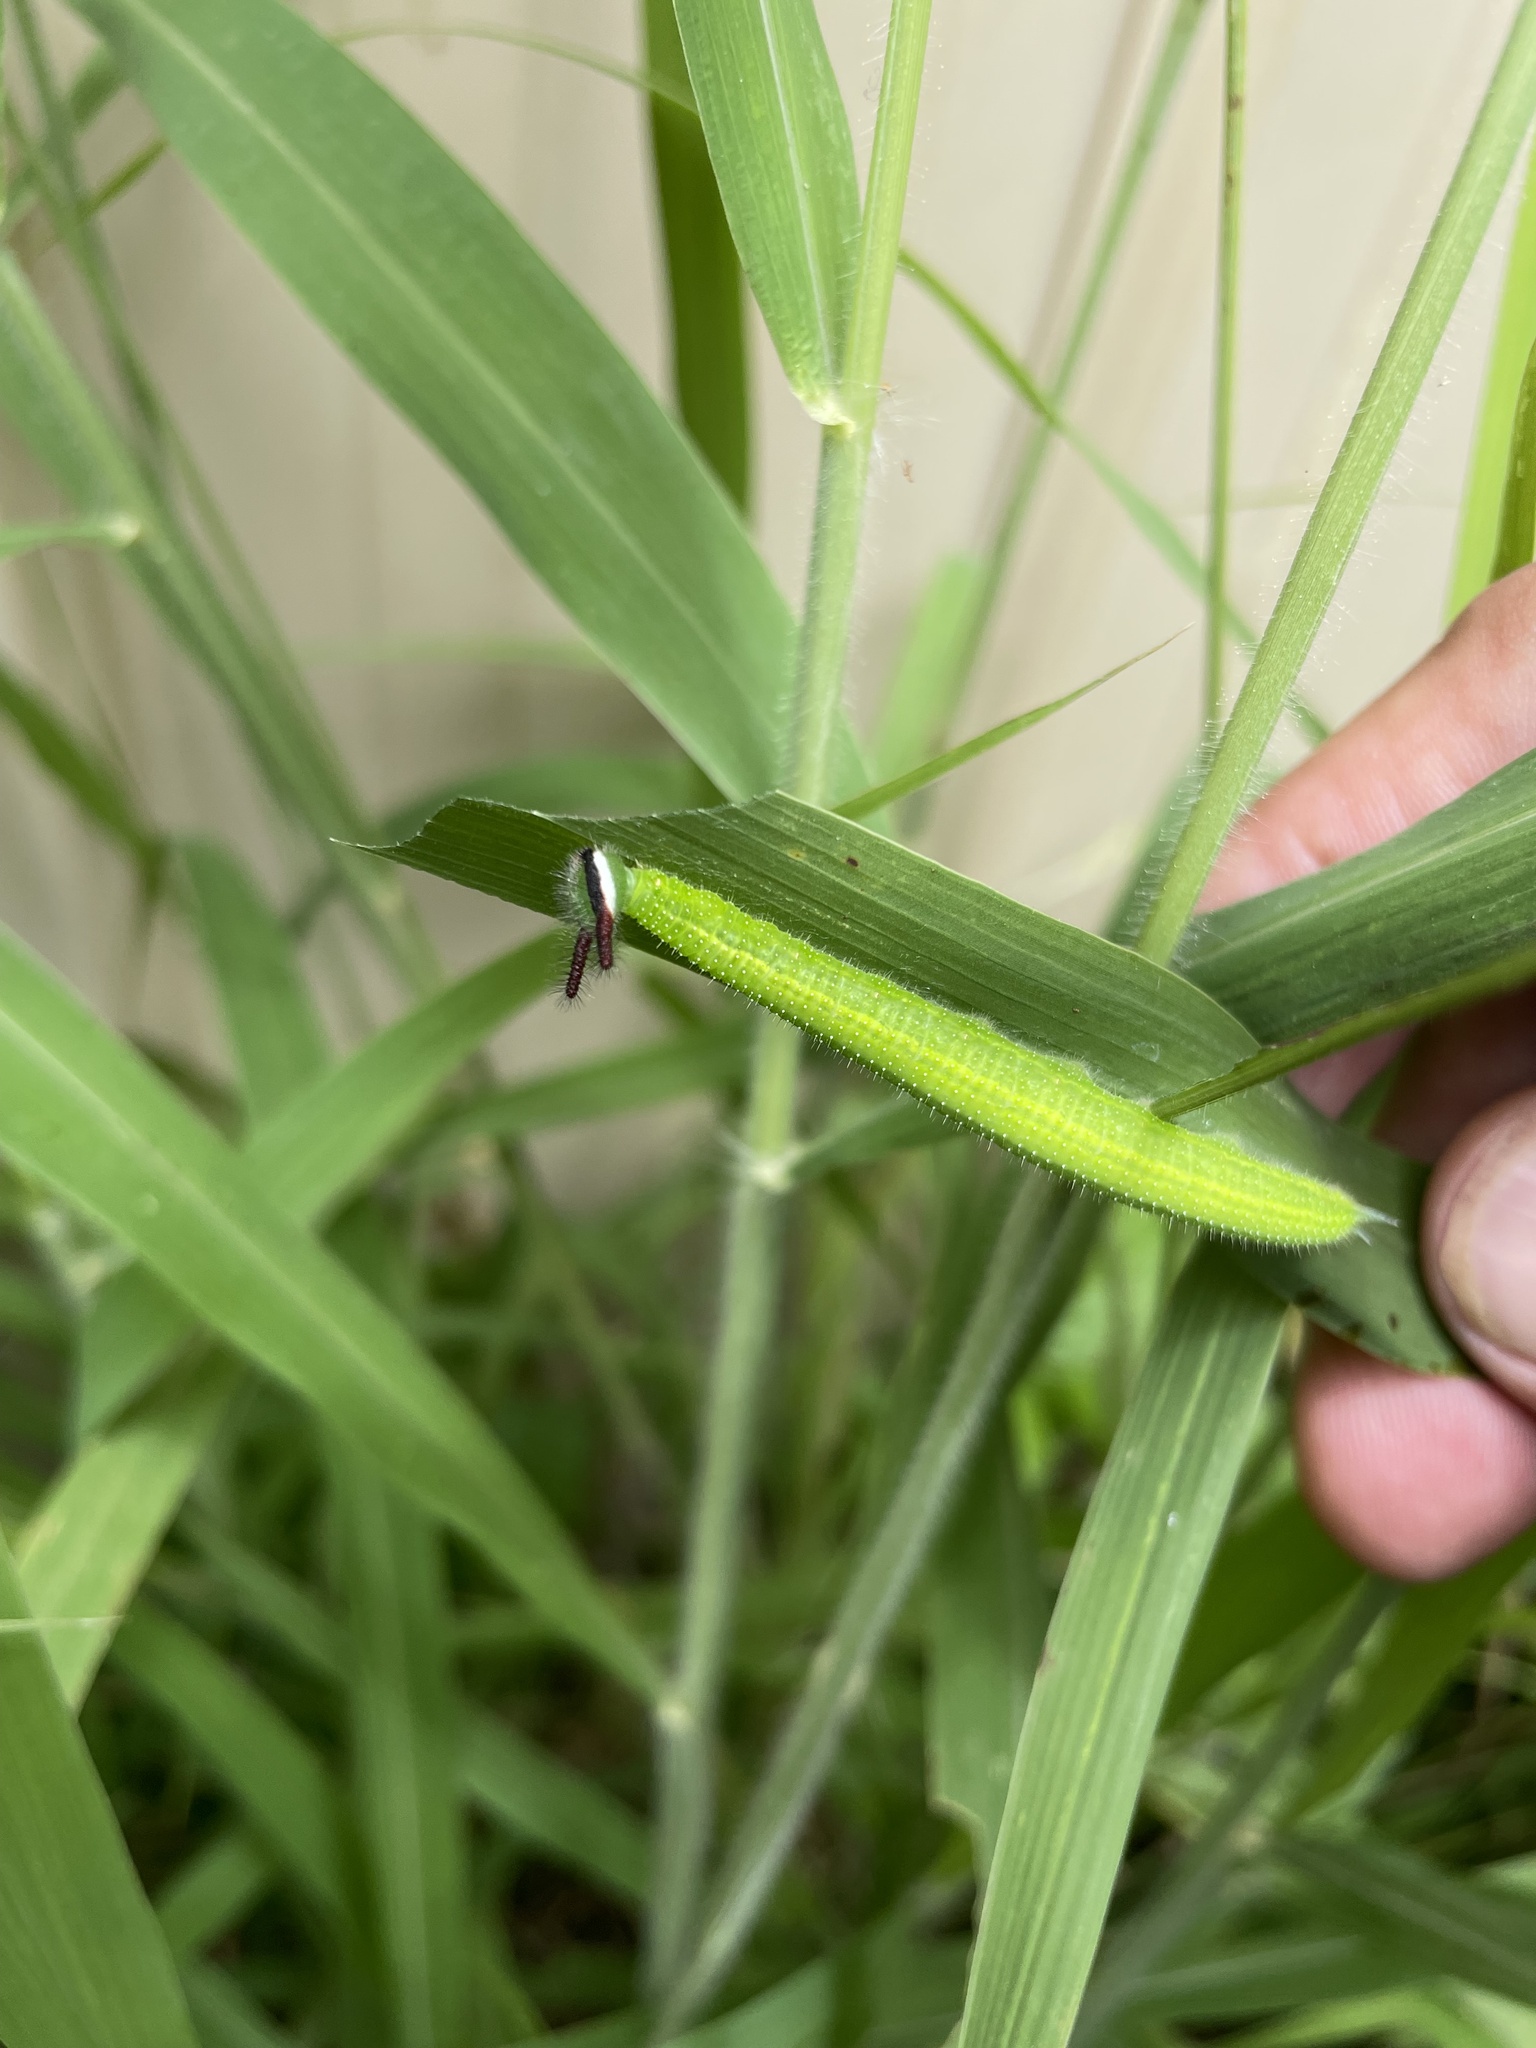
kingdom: Animalia
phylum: Arthropoda
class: Insecta
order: Lepidoptera
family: Nymphalidae
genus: Melanitis
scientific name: Melanitis leda
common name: Twilight brown
